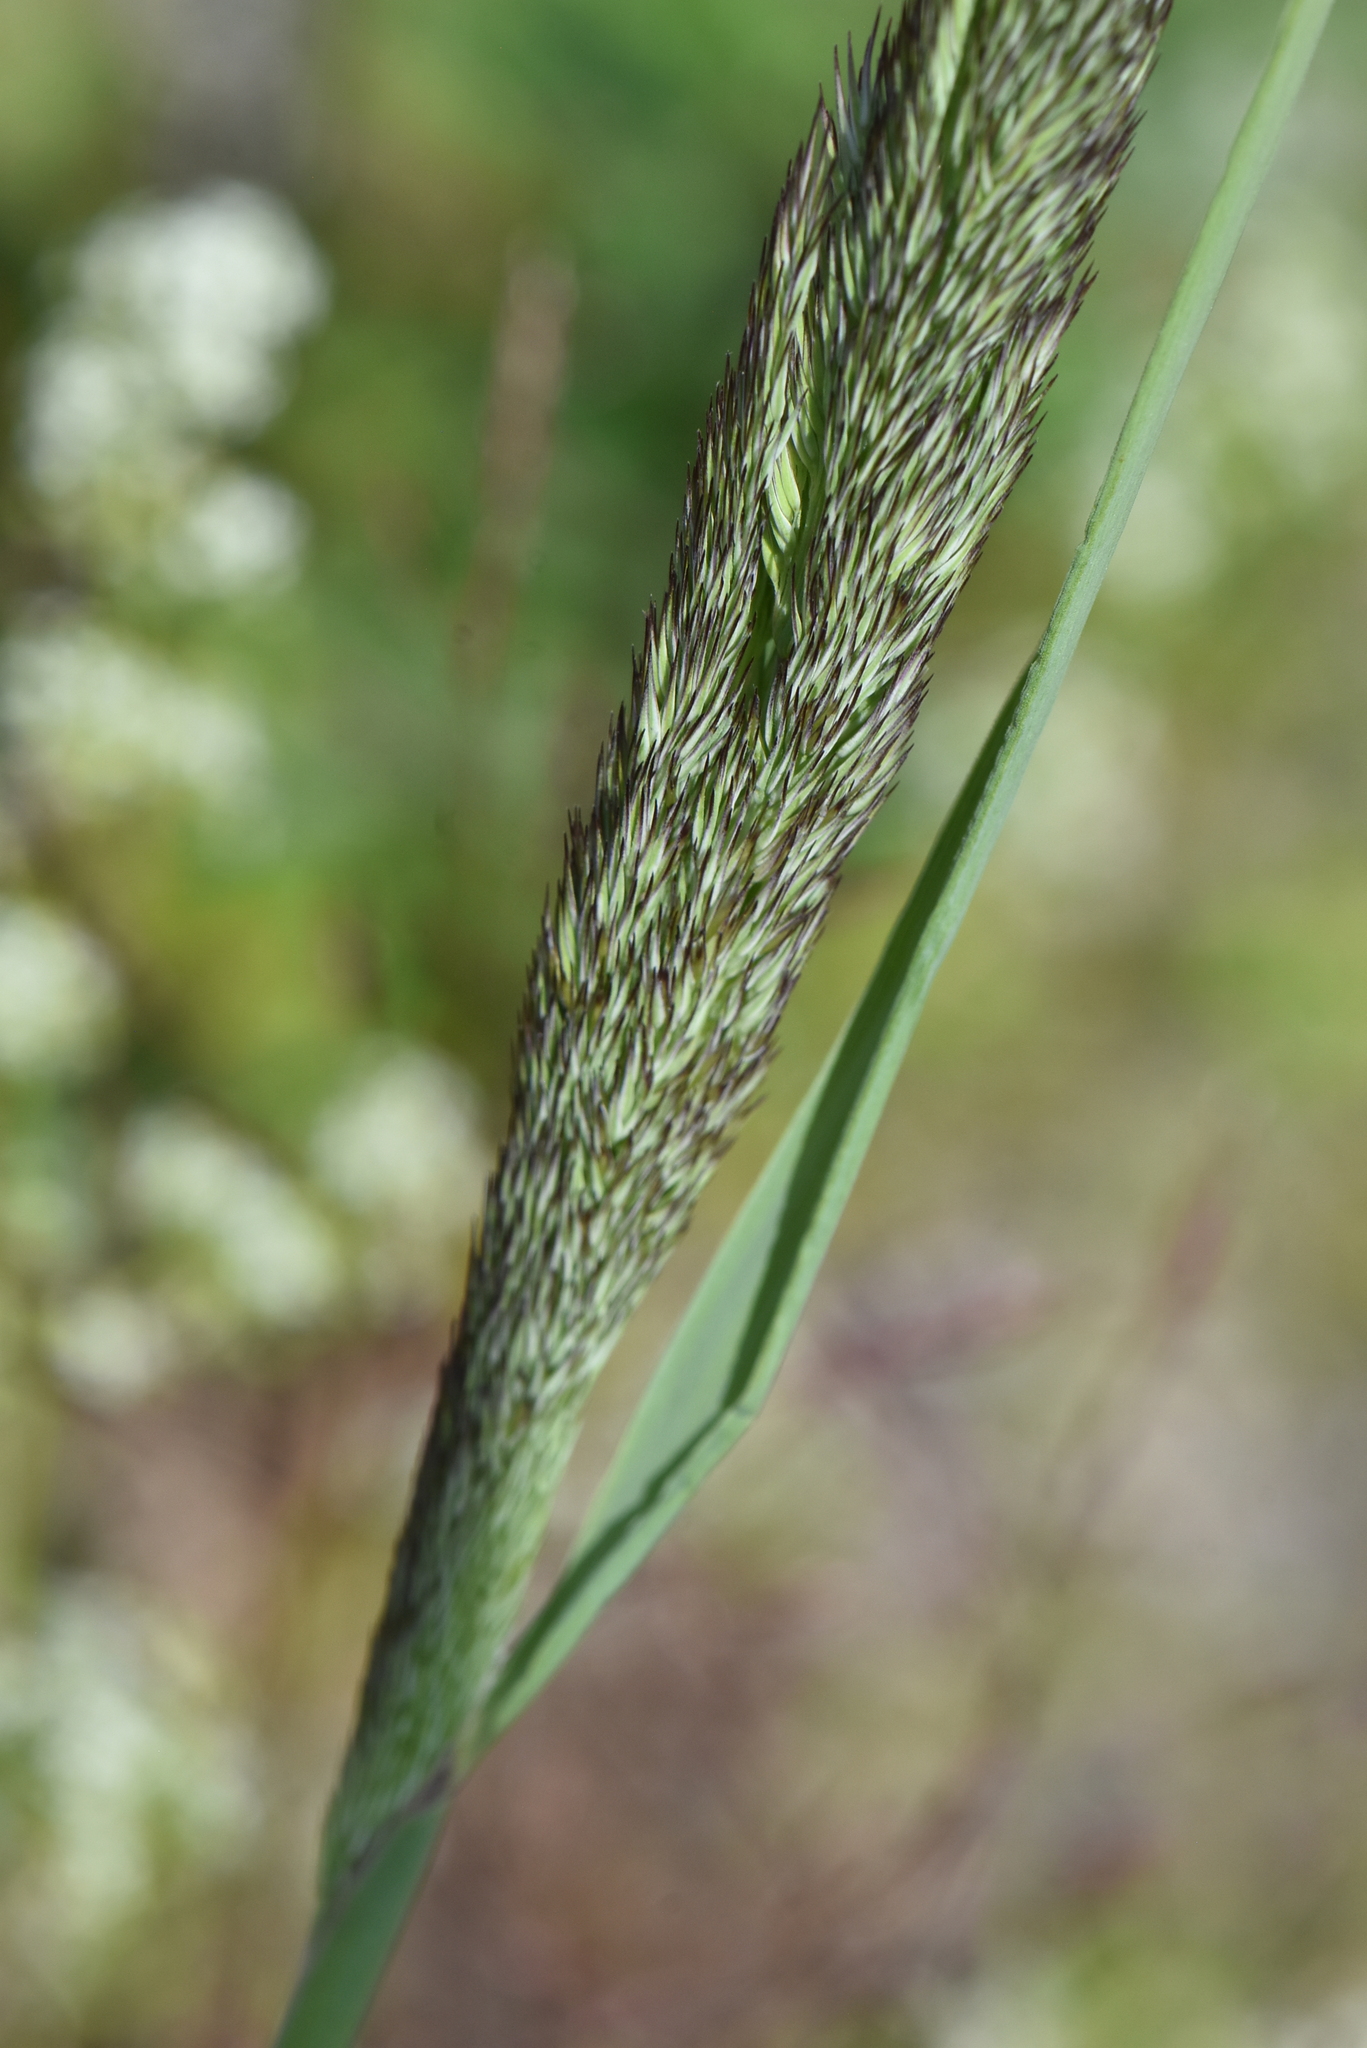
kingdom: Plantae
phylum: Tracheophyta
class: Liliopsida
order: Poales
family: Poaceae
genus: Calamagrostis
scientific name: Calamagrostis epigejos
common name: Wood small-reed
